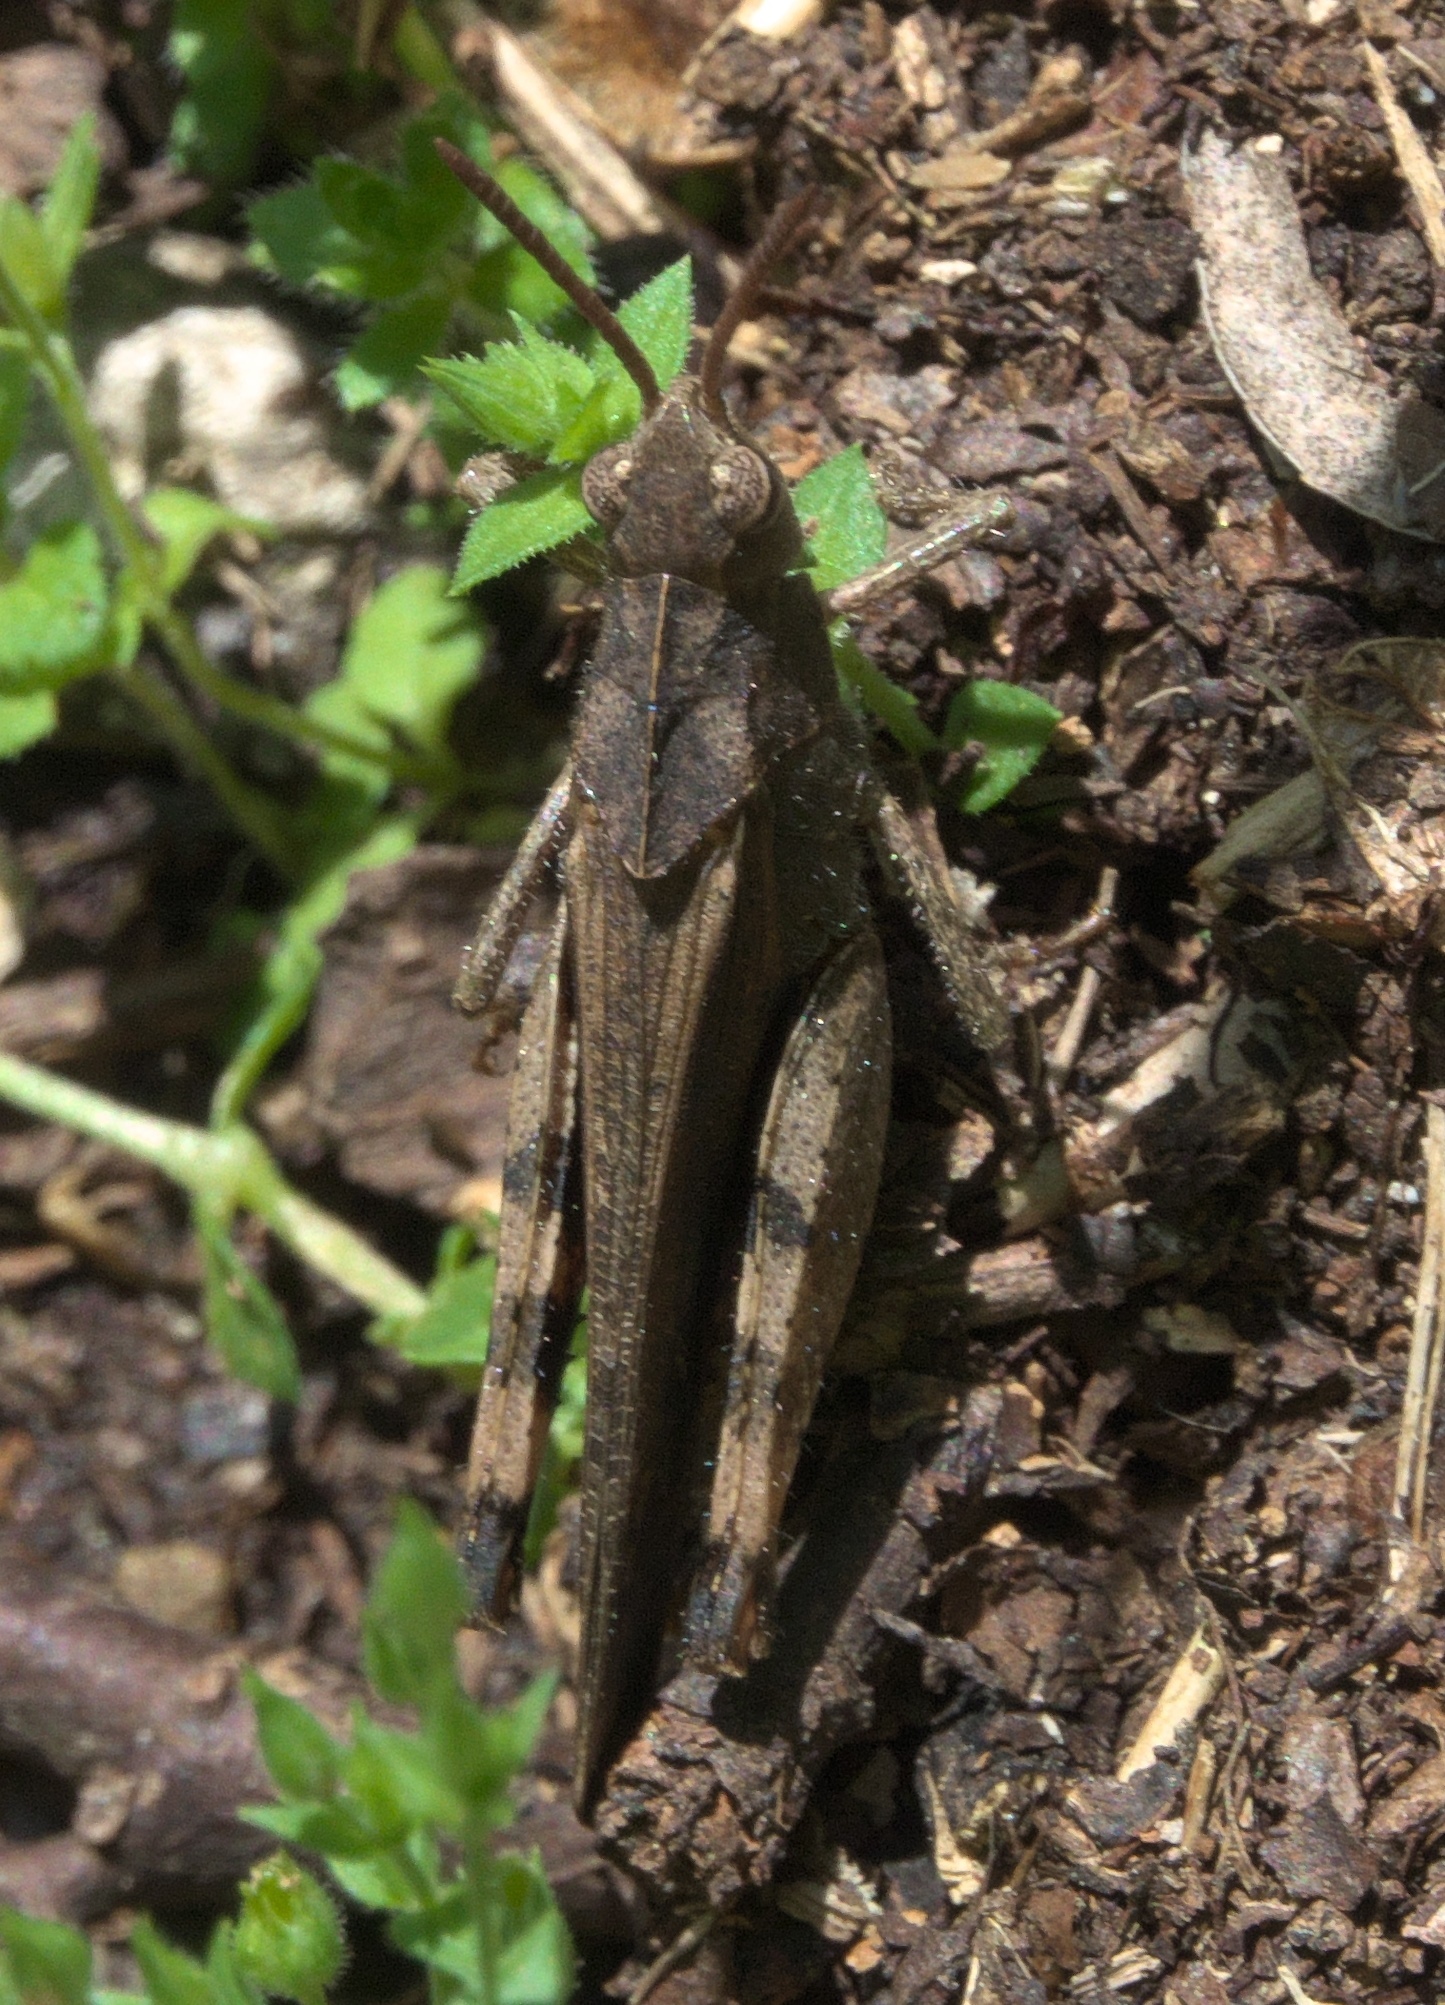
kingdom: Animalia
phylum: Arthropoda
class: Insecta
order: Orthoptera
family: Acrididae
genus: Chortophaga
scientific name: Chortophaga viridifasciata
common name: Green-striped grasshopper
